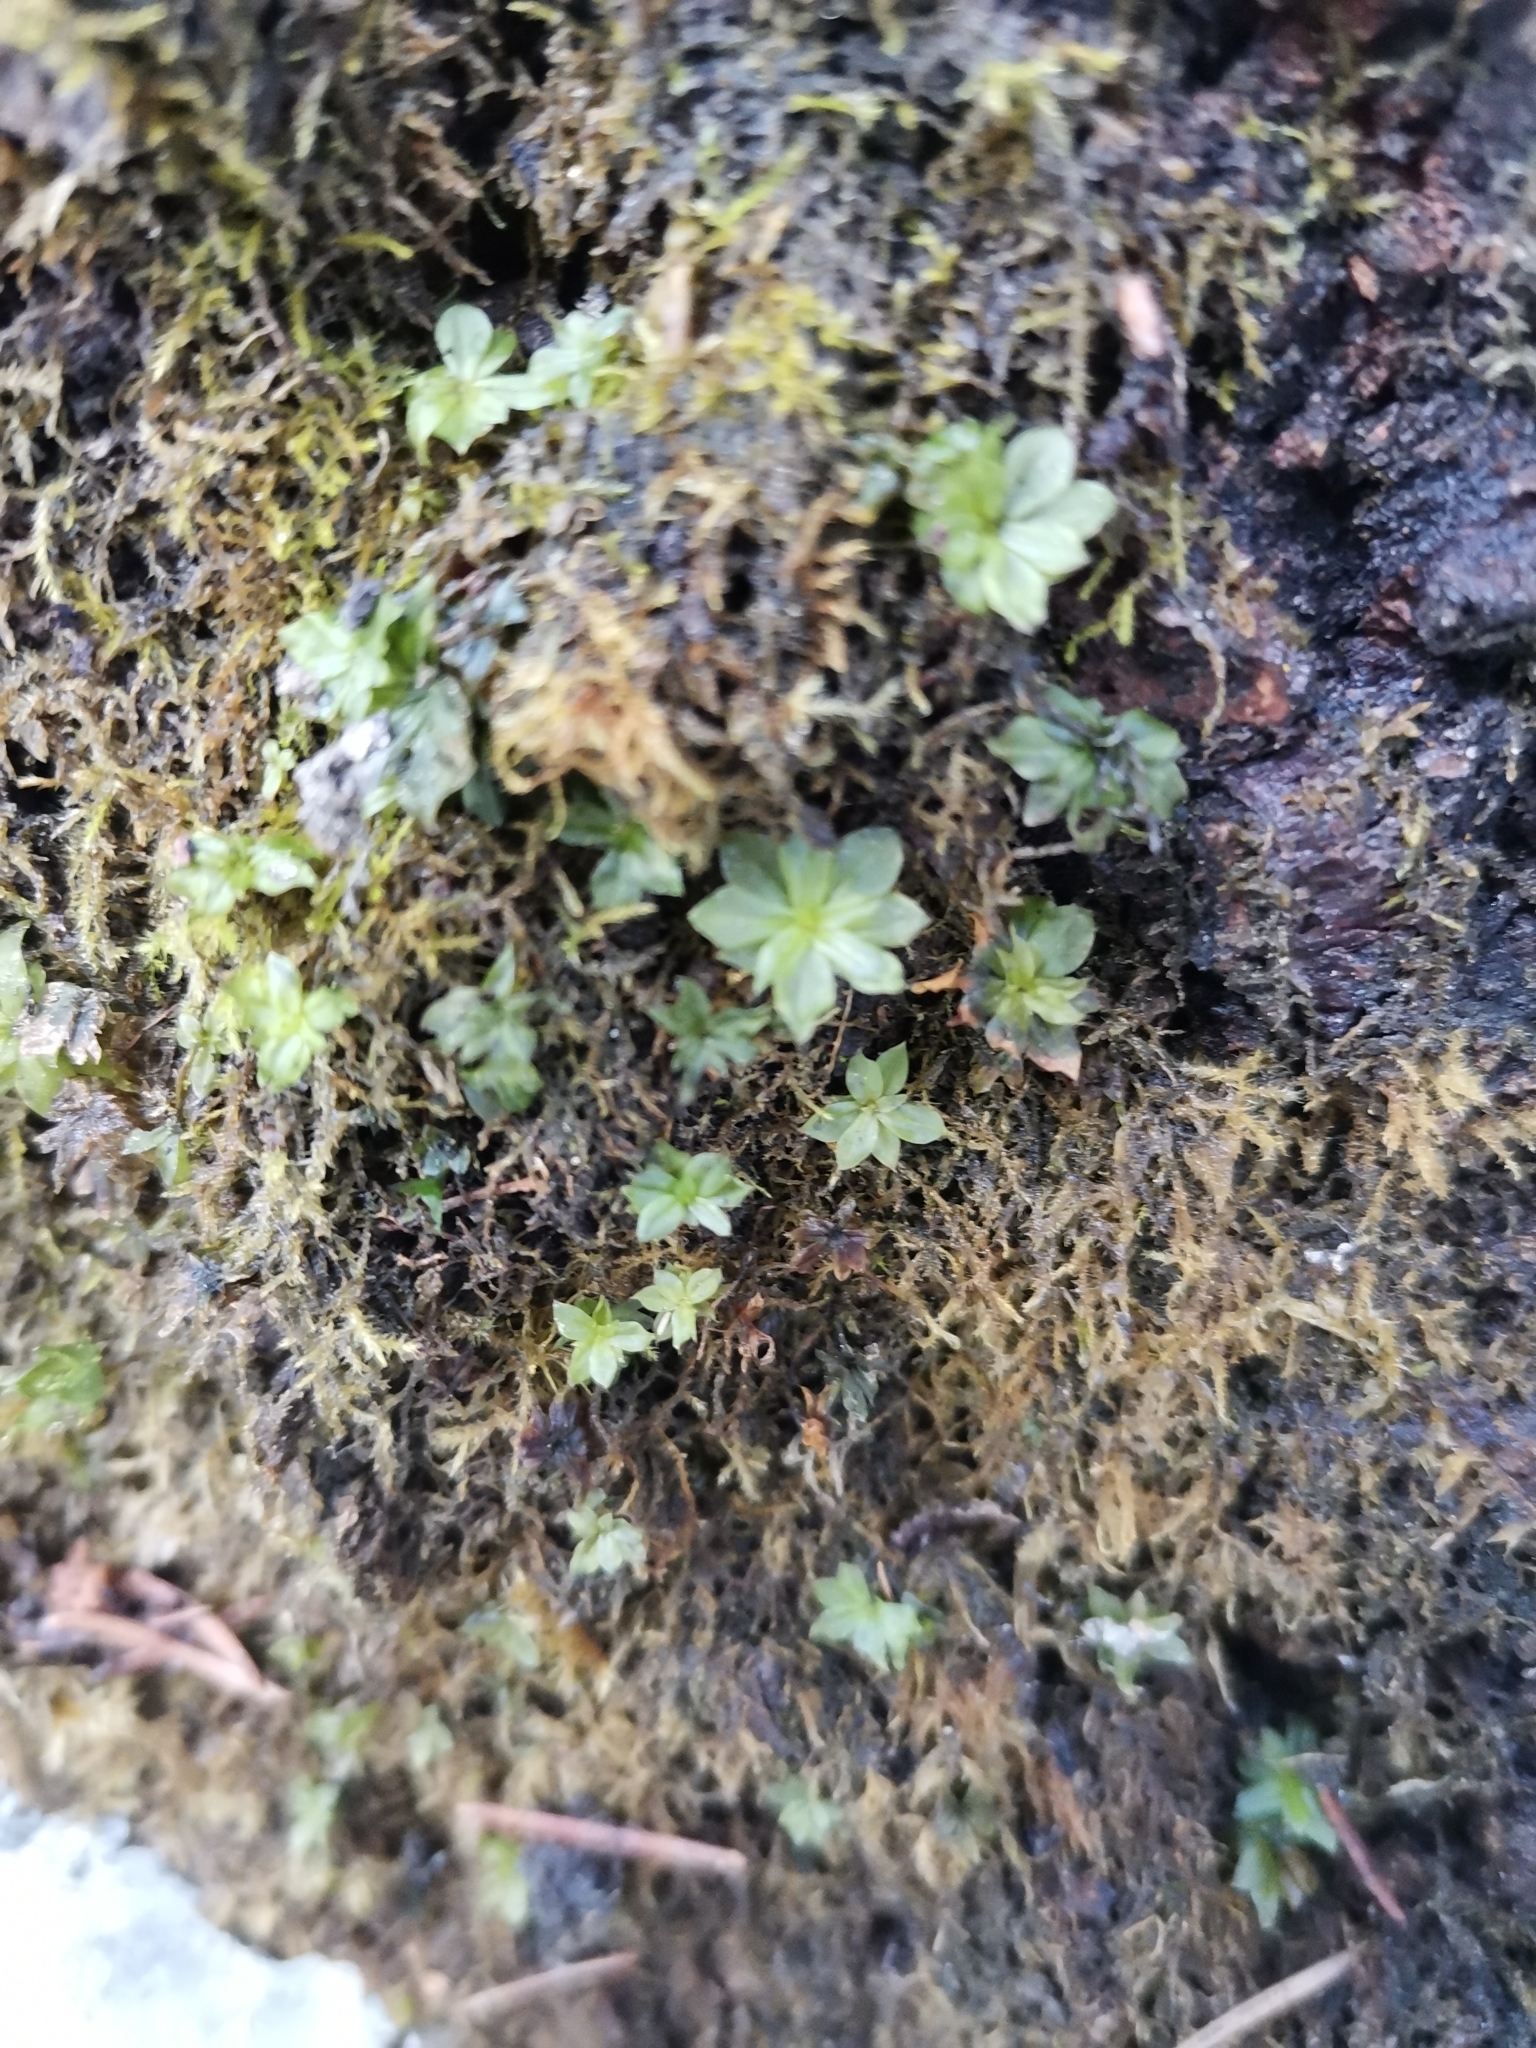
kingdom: Plantae
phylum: Bryophyta
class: Bryopsida
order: Bryales
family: Bryaceae
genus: Rhodobryum
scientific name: Rhodobryum roseum
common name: Rose-moss
